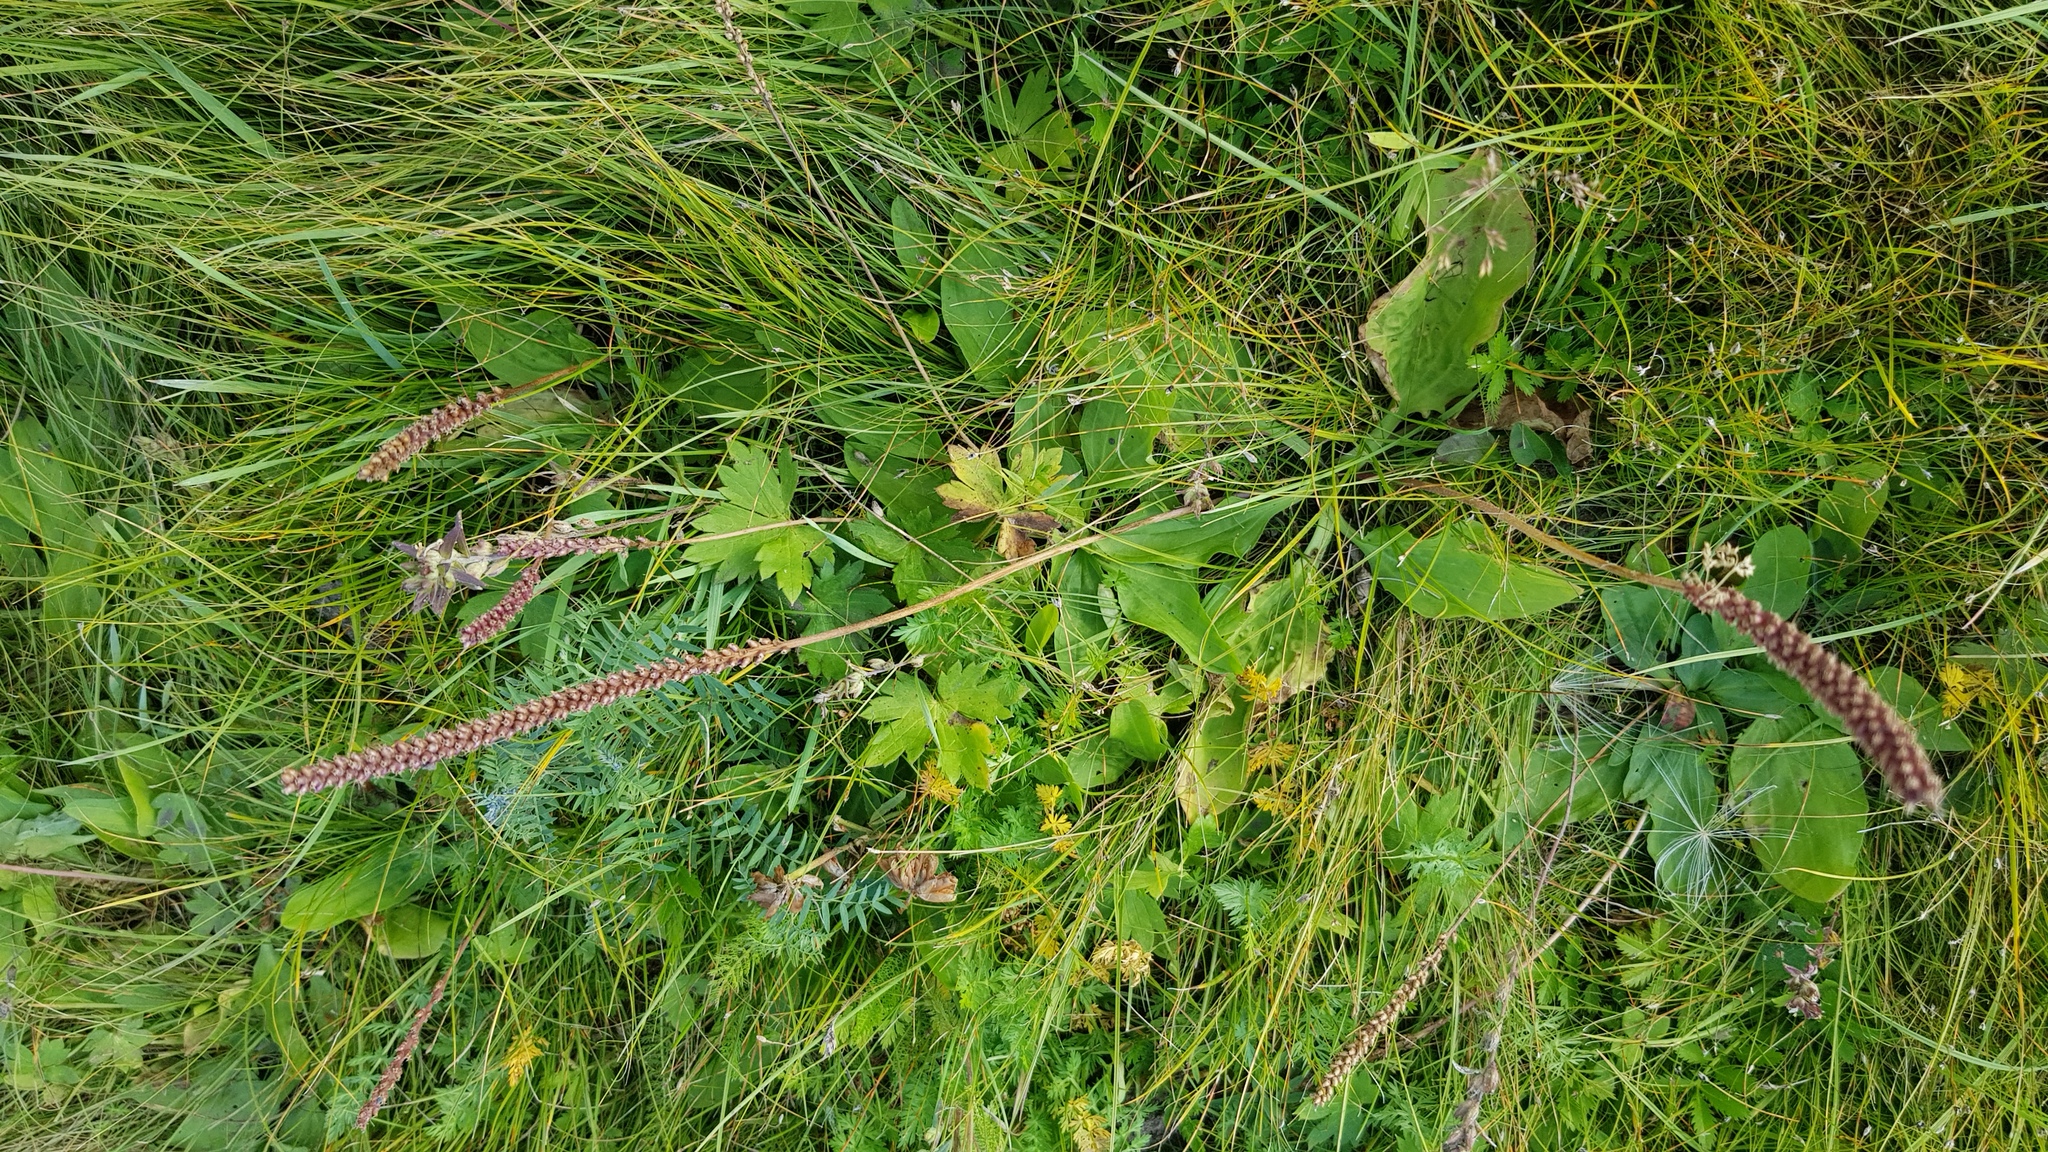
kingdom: Plantae
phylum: Tracheophyta
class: Magnoliopsida
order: Lamiales
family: Plantaginaceae
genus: Plantago
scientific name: Plantago major
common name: Common plantain
